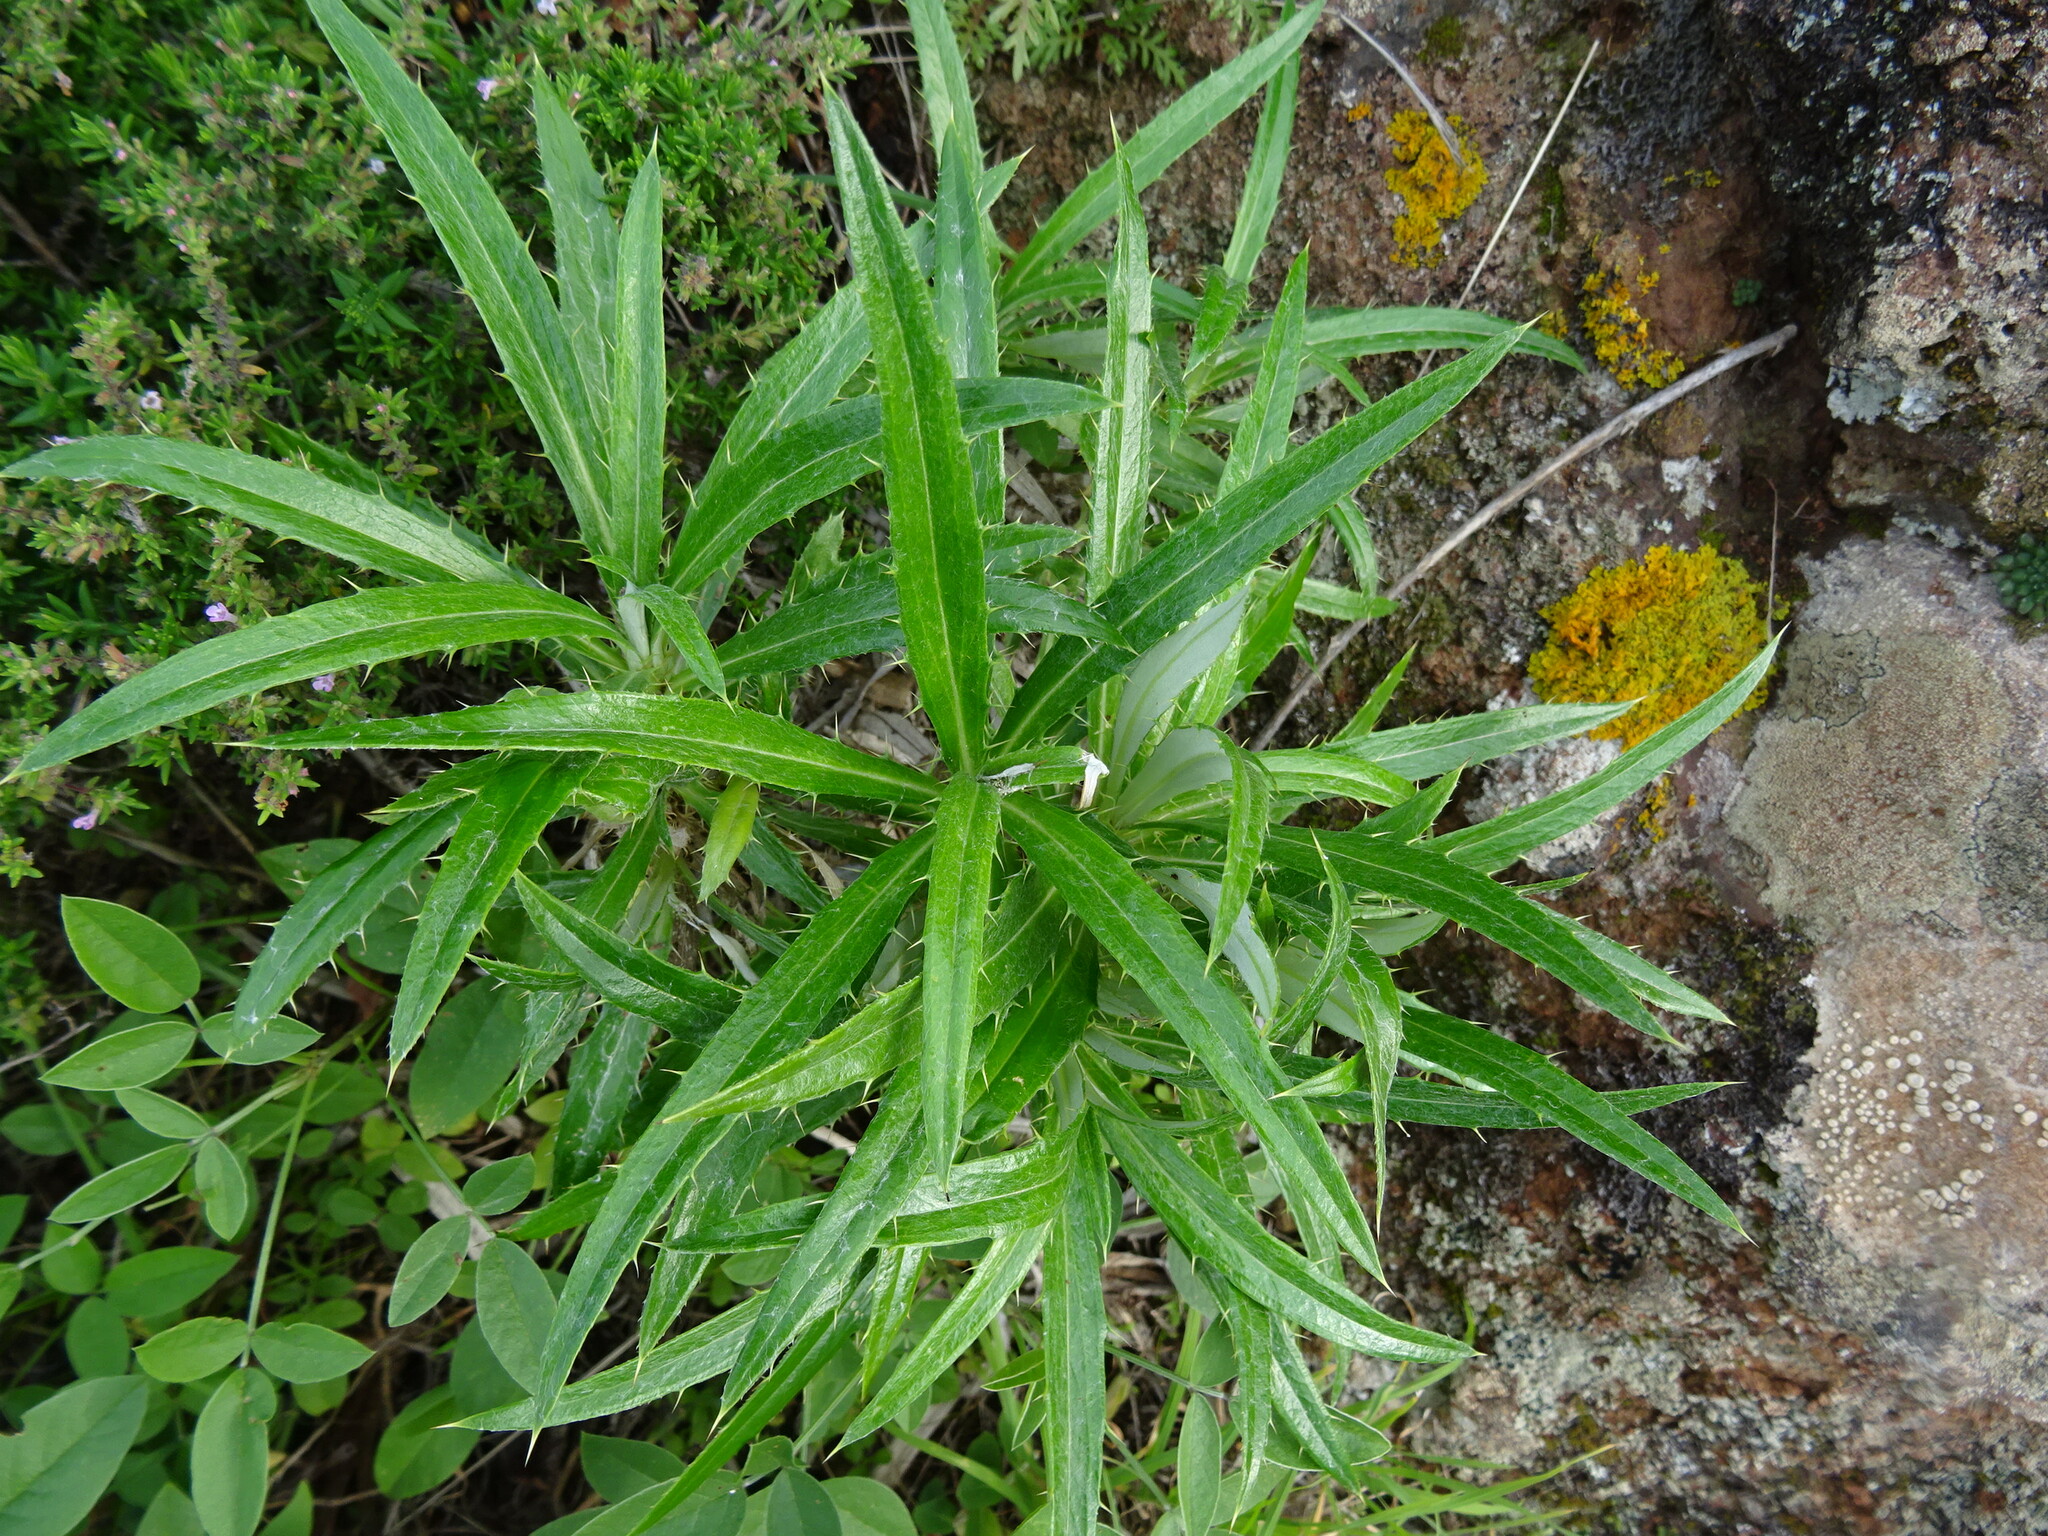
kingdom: Plantae
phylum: Tracheophyta
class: Magnoliopsida
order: Asterales
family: Asteraceae
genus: Carlina
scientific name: Carlina salicifolia
